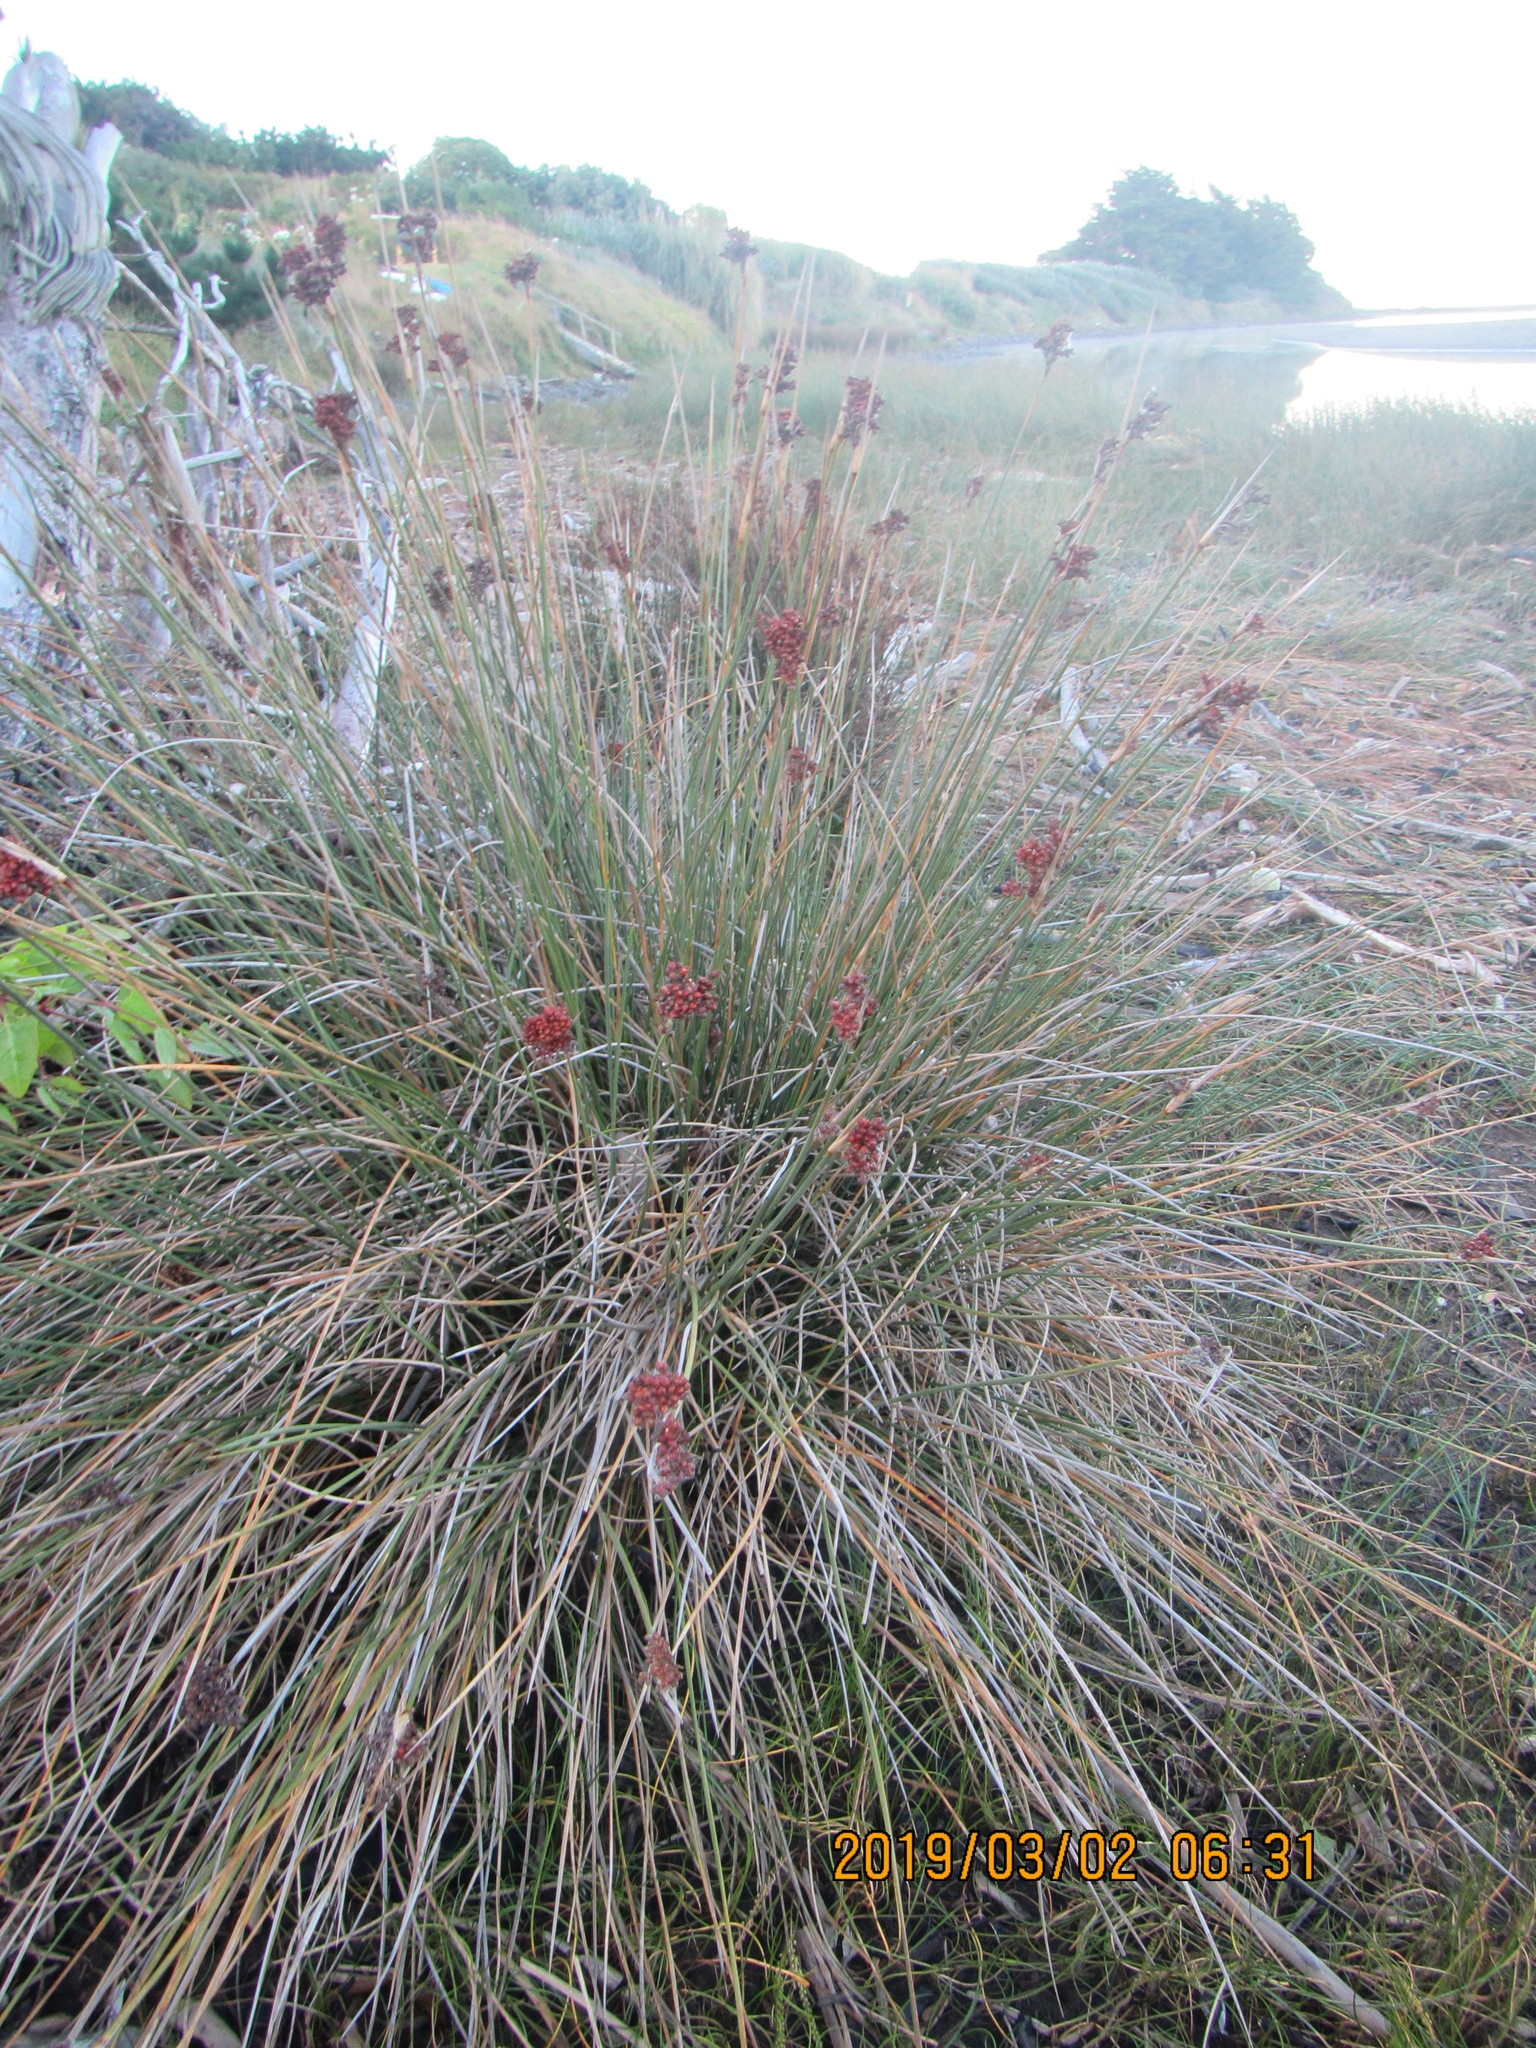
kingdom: Plantae
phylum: Tracheophyta
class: Liliopsida
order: Poales
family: Juncaceae
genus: Juncus
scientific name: Juncus acutus
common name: Sharp rush
